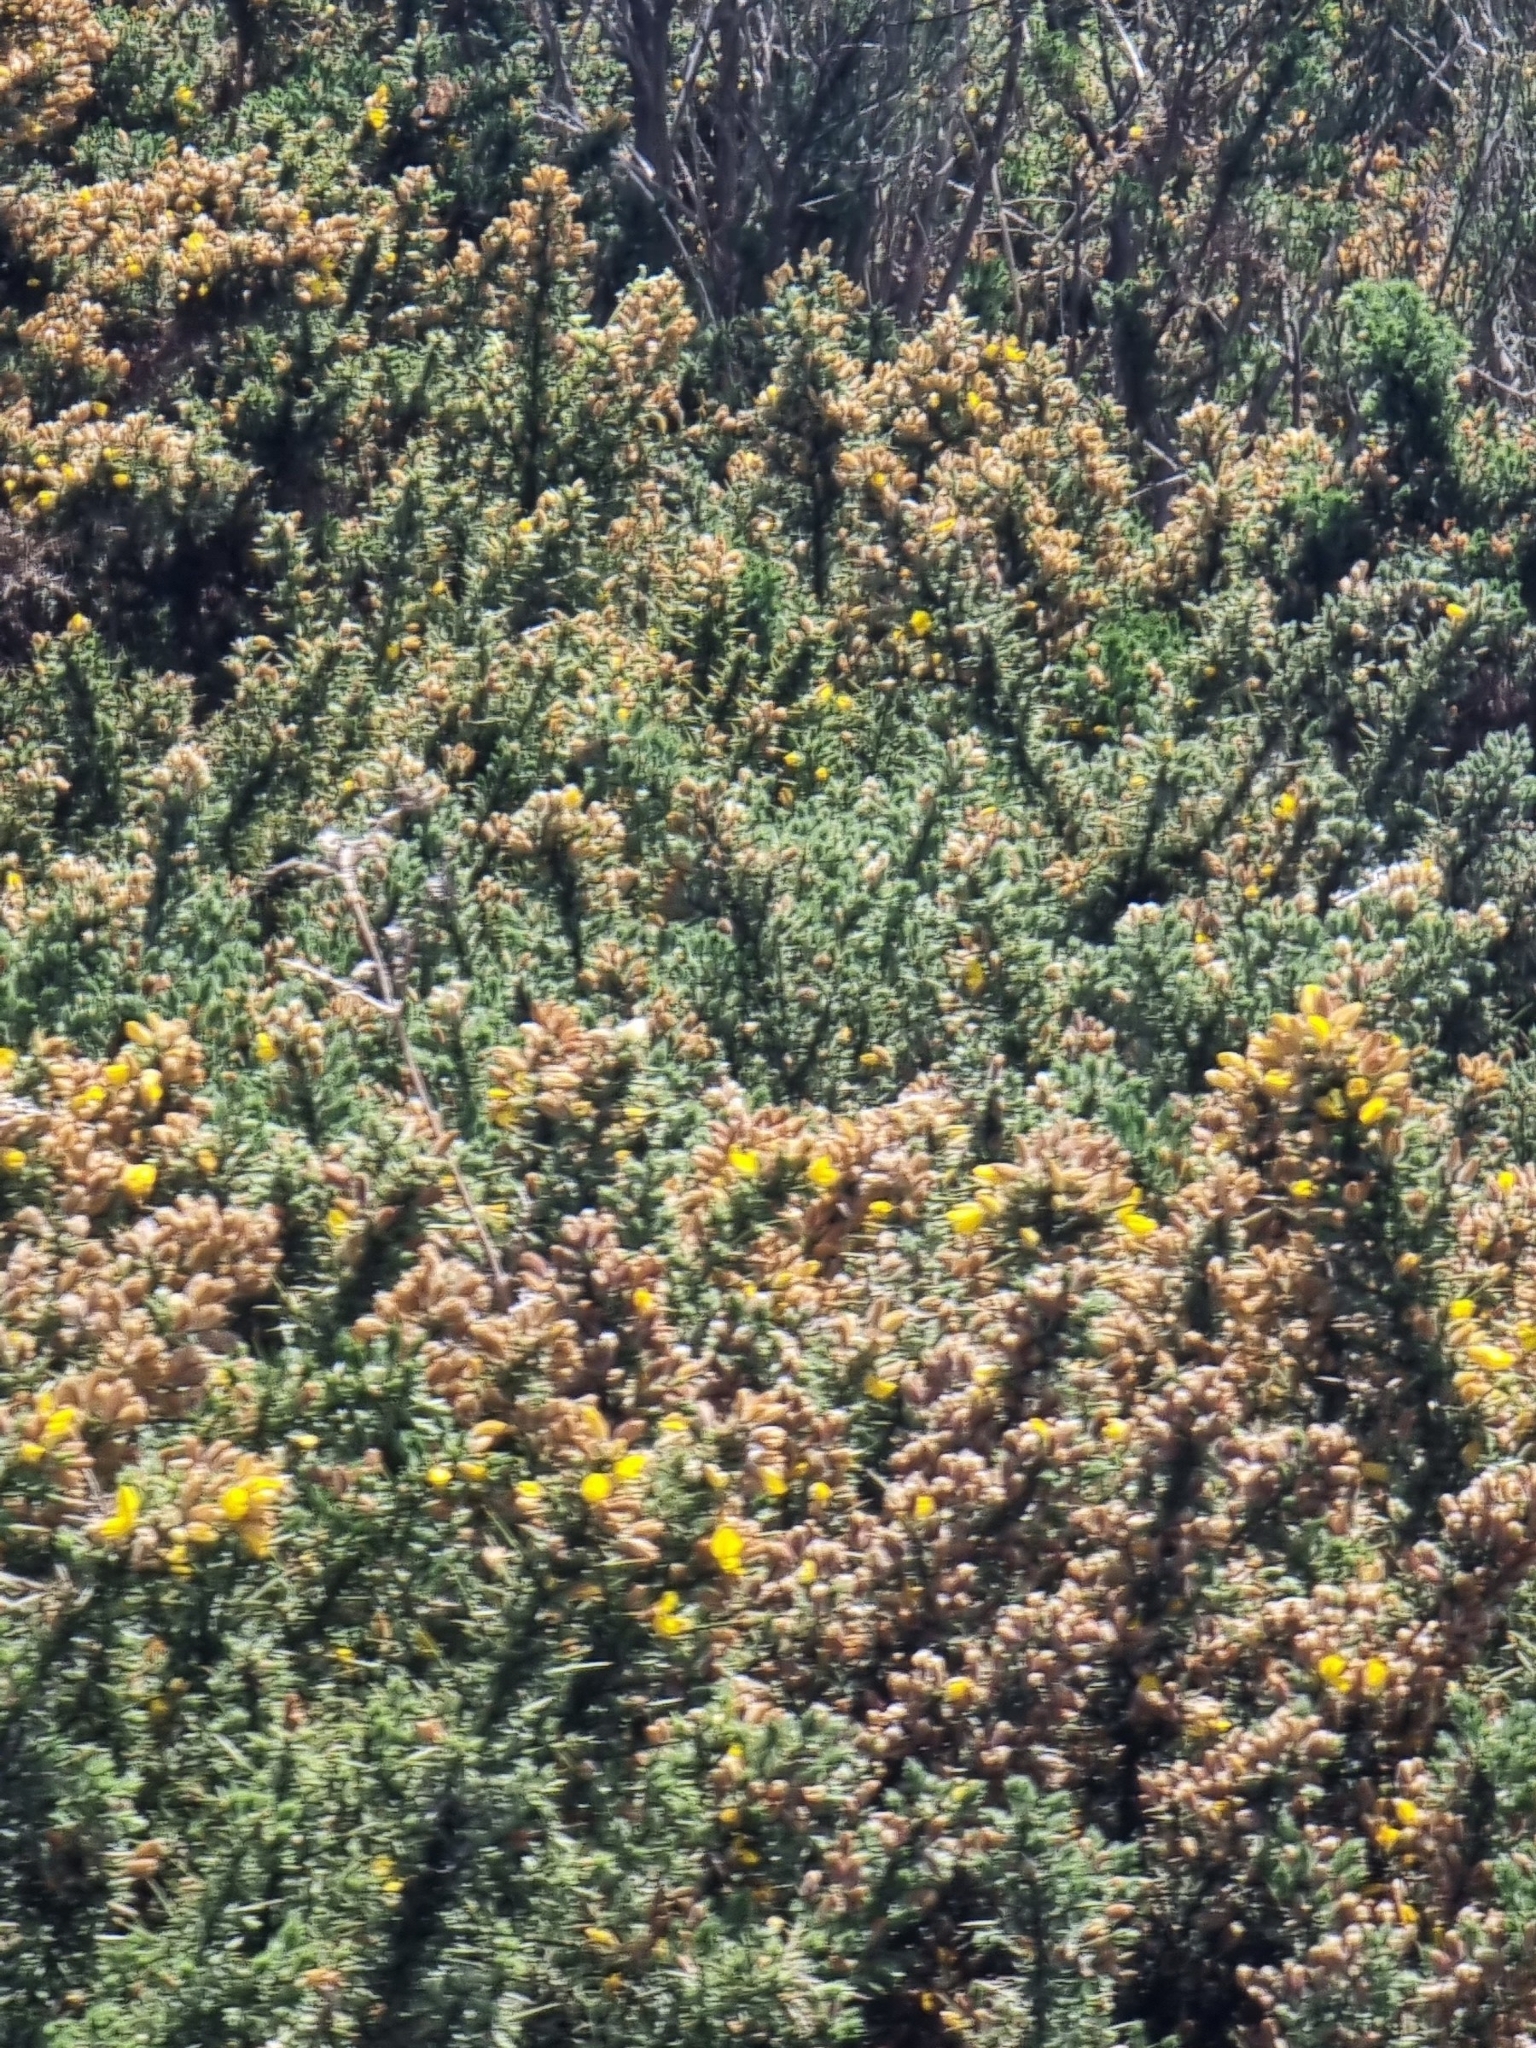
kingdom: Plantae
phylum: Tracheophyta
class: Magnoliopsida
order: Fabales
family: Fabaceae
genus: Ulex
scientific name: Ulex europaeus
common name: Common gorse
